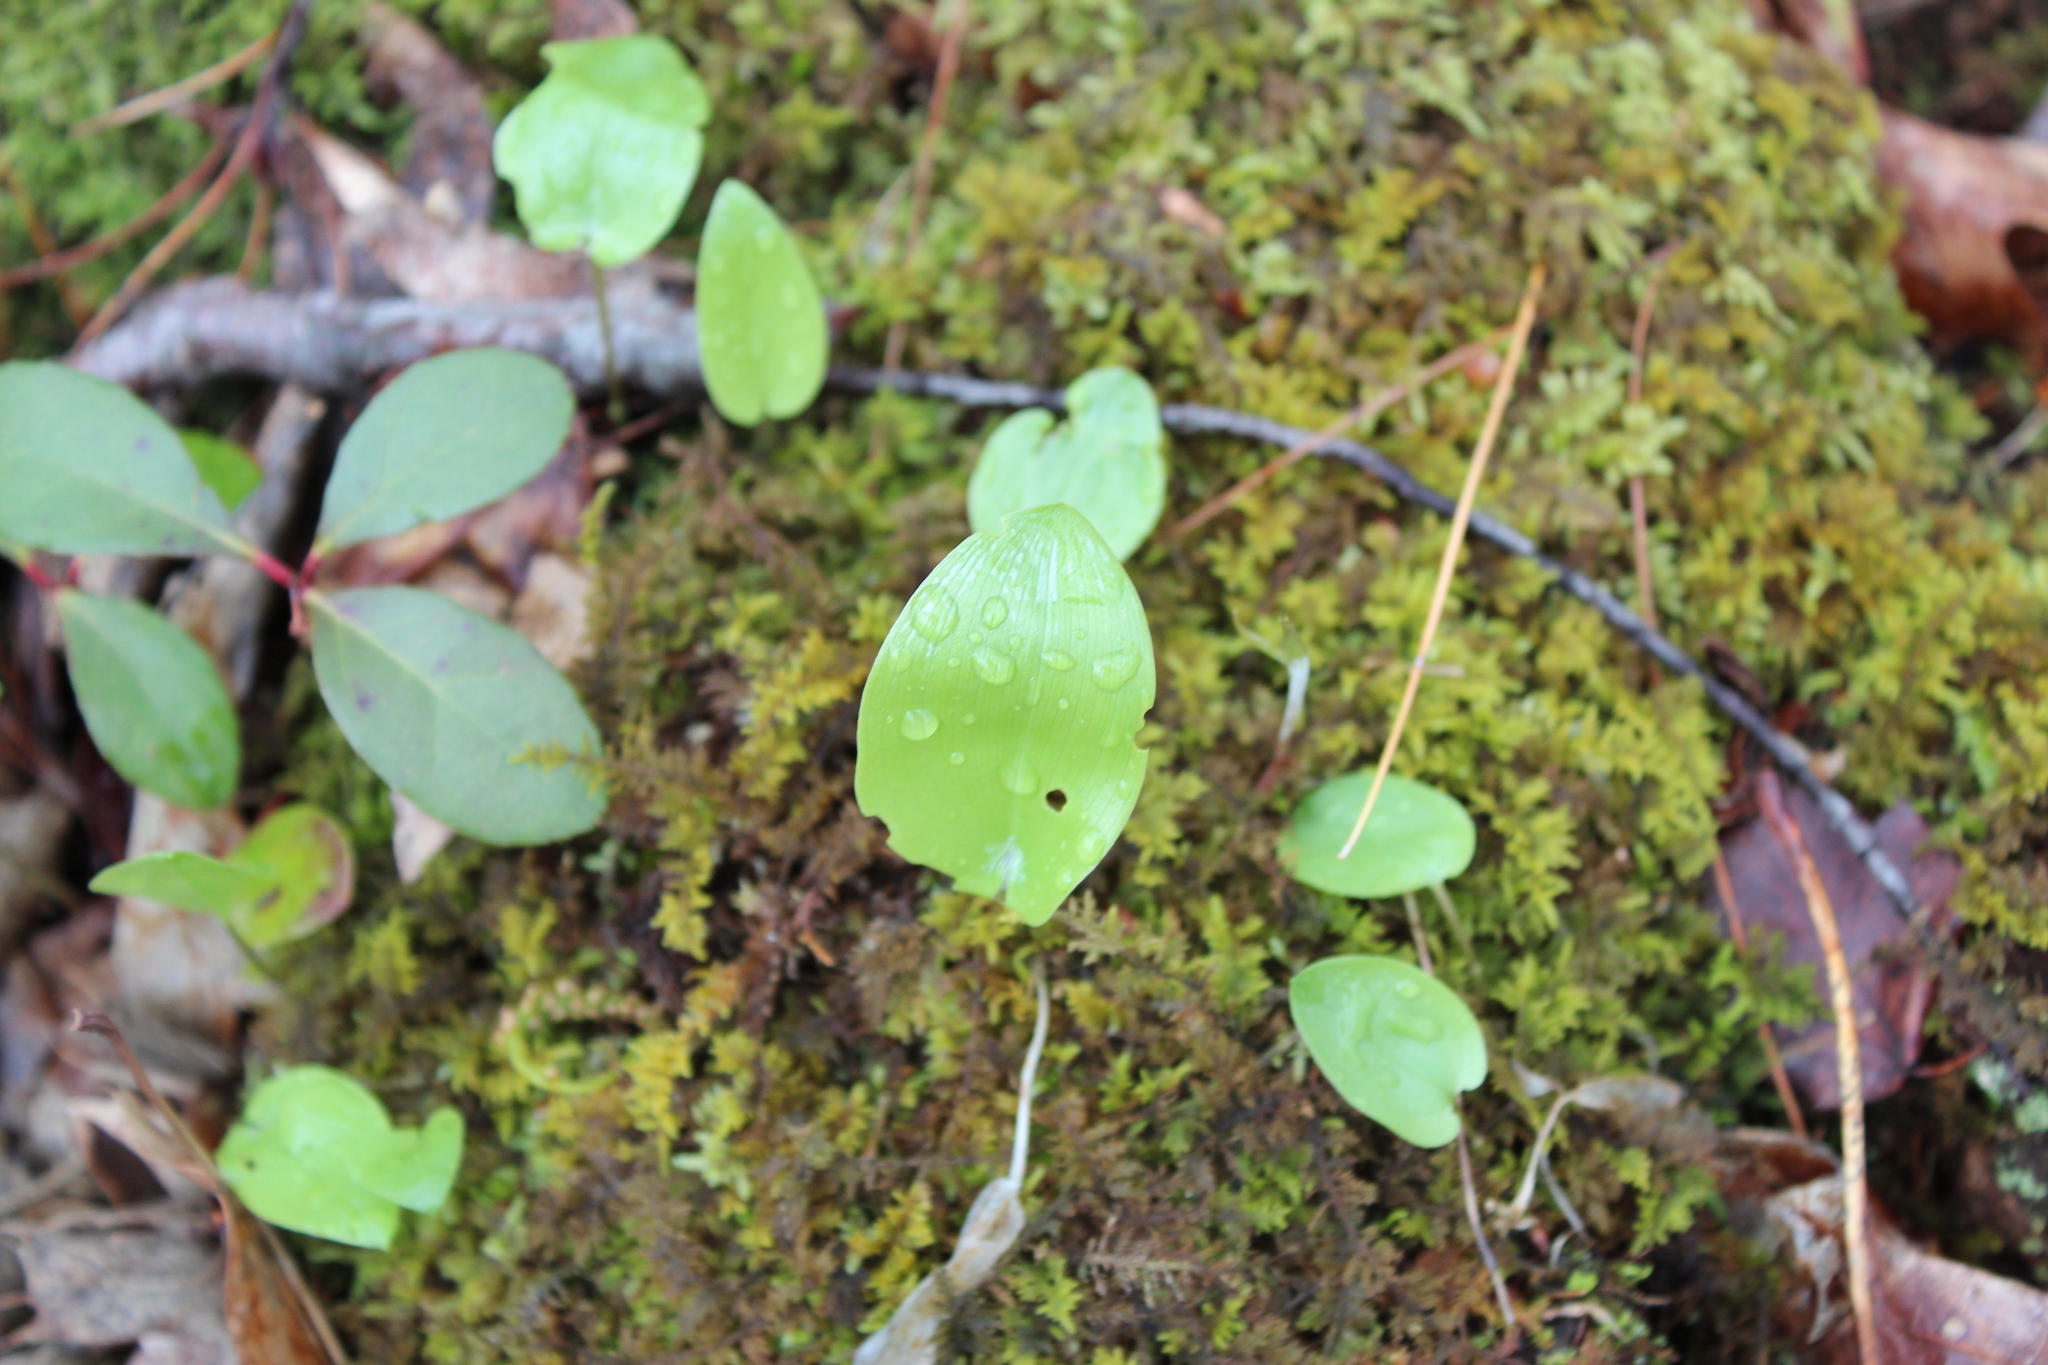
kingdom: Plantae
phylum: Tracheophyta
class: Liliopsida
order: Asparagales
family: Asparagaceae
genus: Maianthemum
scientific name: Maianthemum canadense
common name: False lily-of-the-valley
